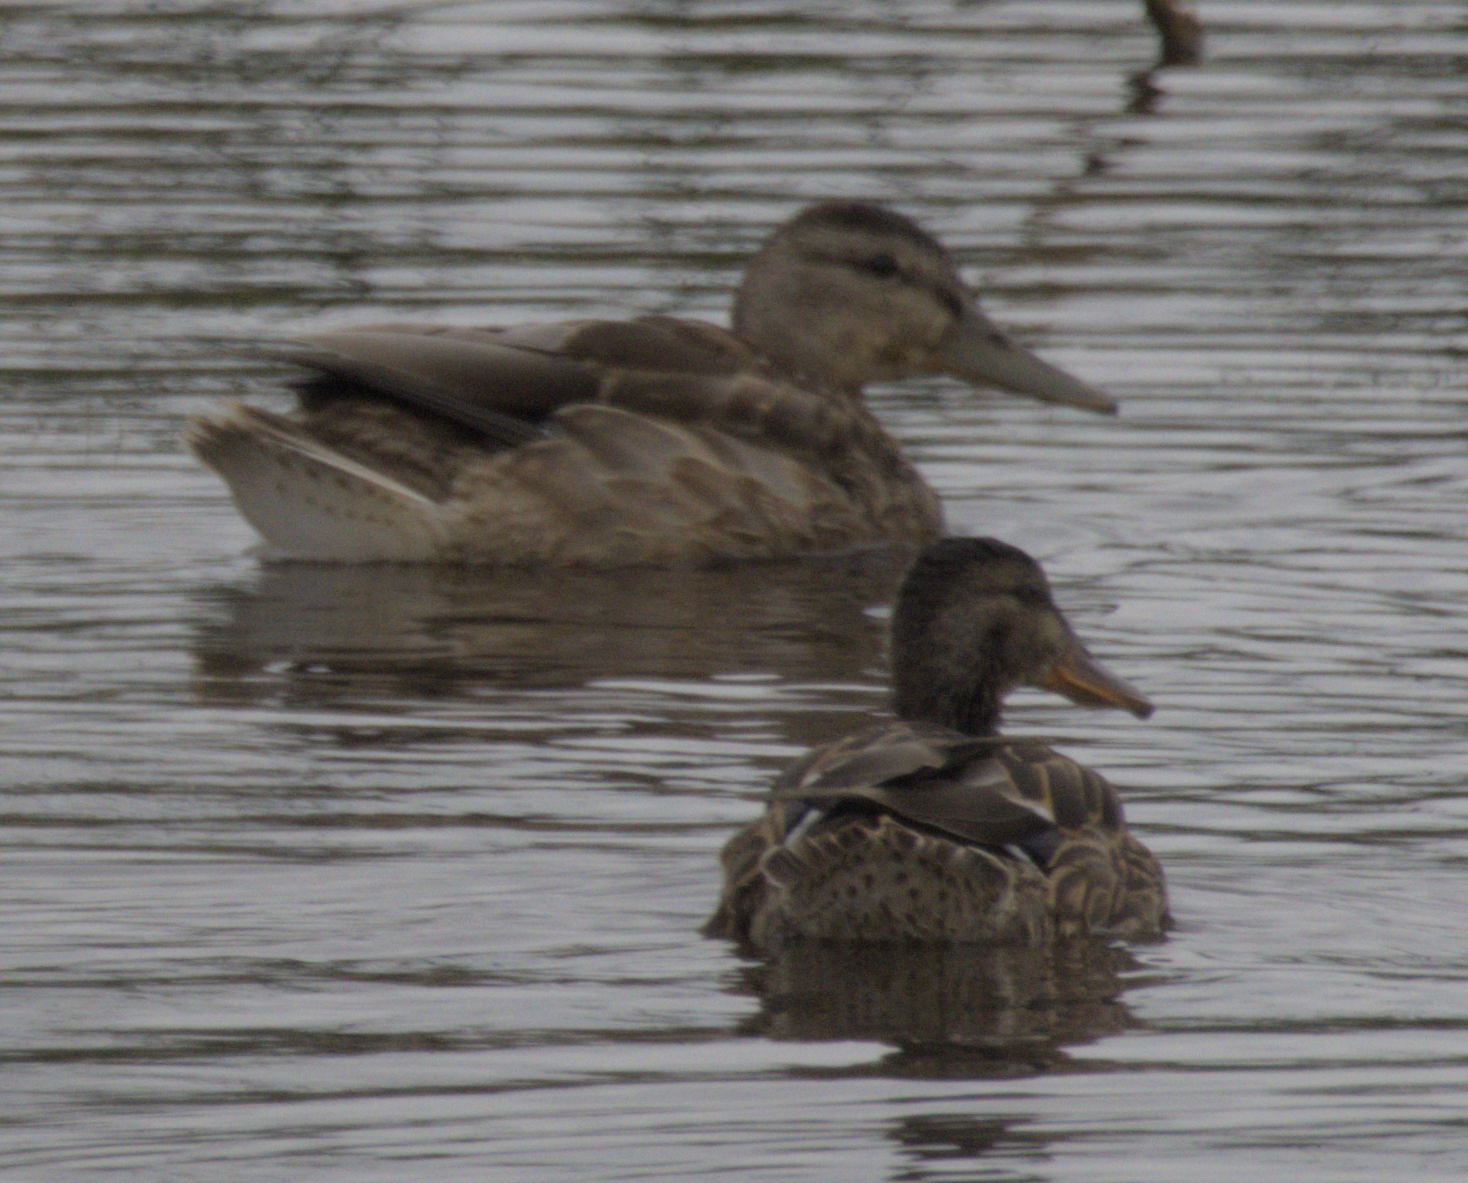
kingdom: Animalia
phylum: Chordata
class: Aves
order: Anseriformes
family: Anatidae
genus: Anas
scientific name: Anas platyrhynchos
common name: Mallard
